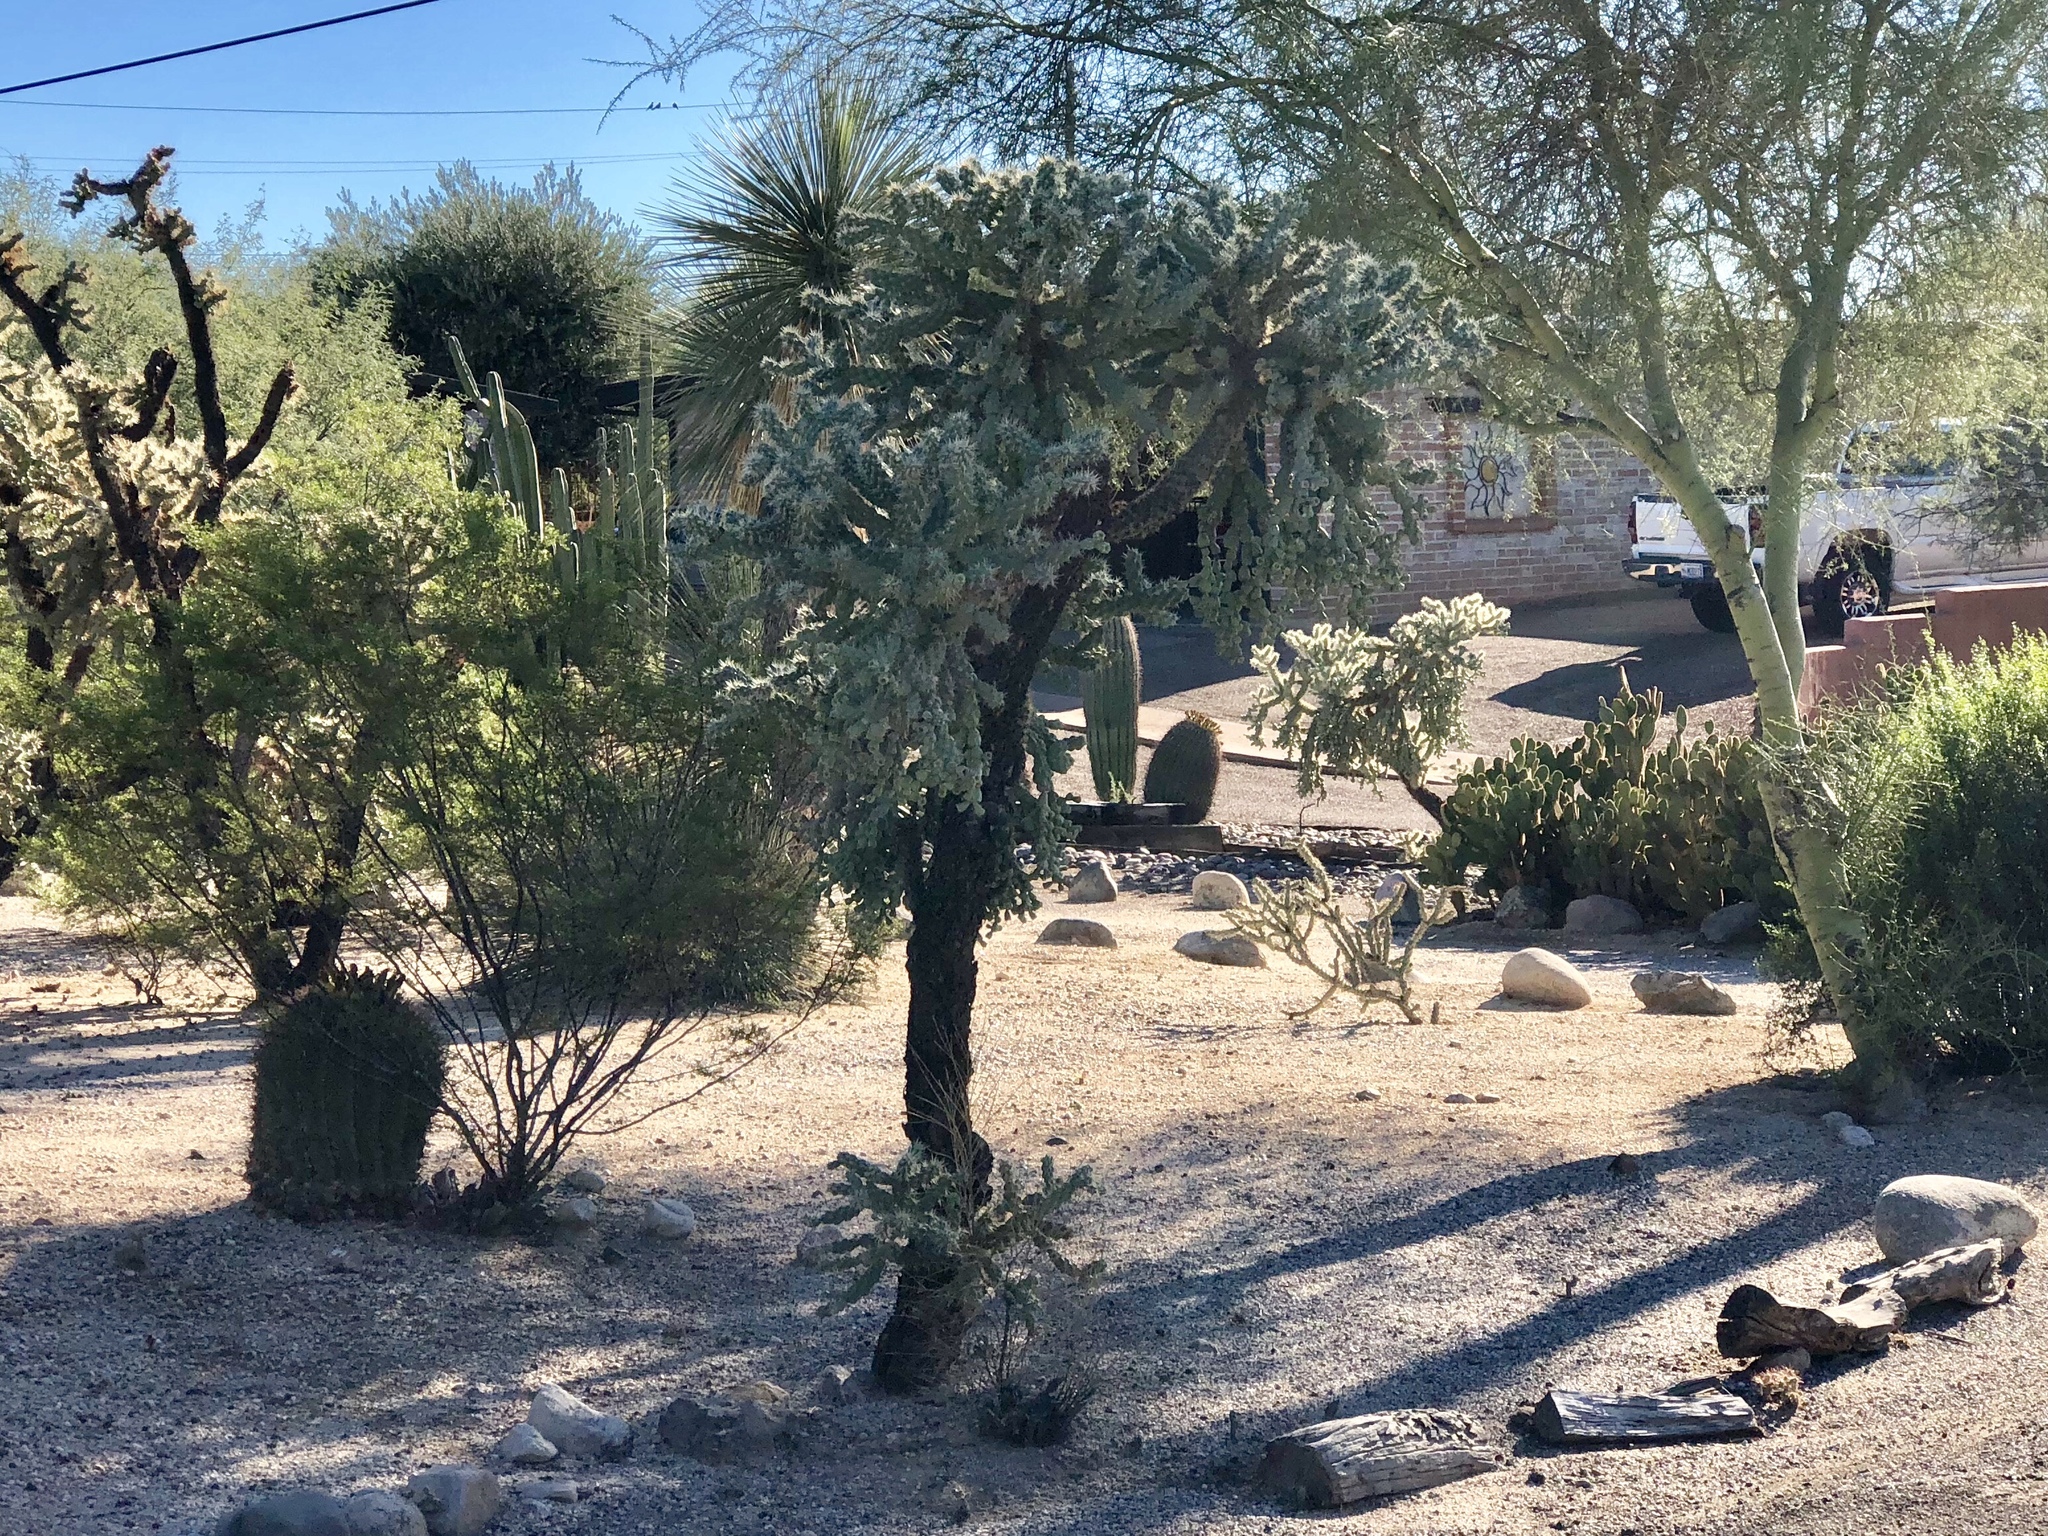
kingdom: Plantae
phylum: Tracheophyta
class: Magnoliopsida
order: Caryophyllales
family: Cactaceae
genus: Cylindropuntia
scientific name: Cylindropuntia fulgida
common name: Jumping cholla
